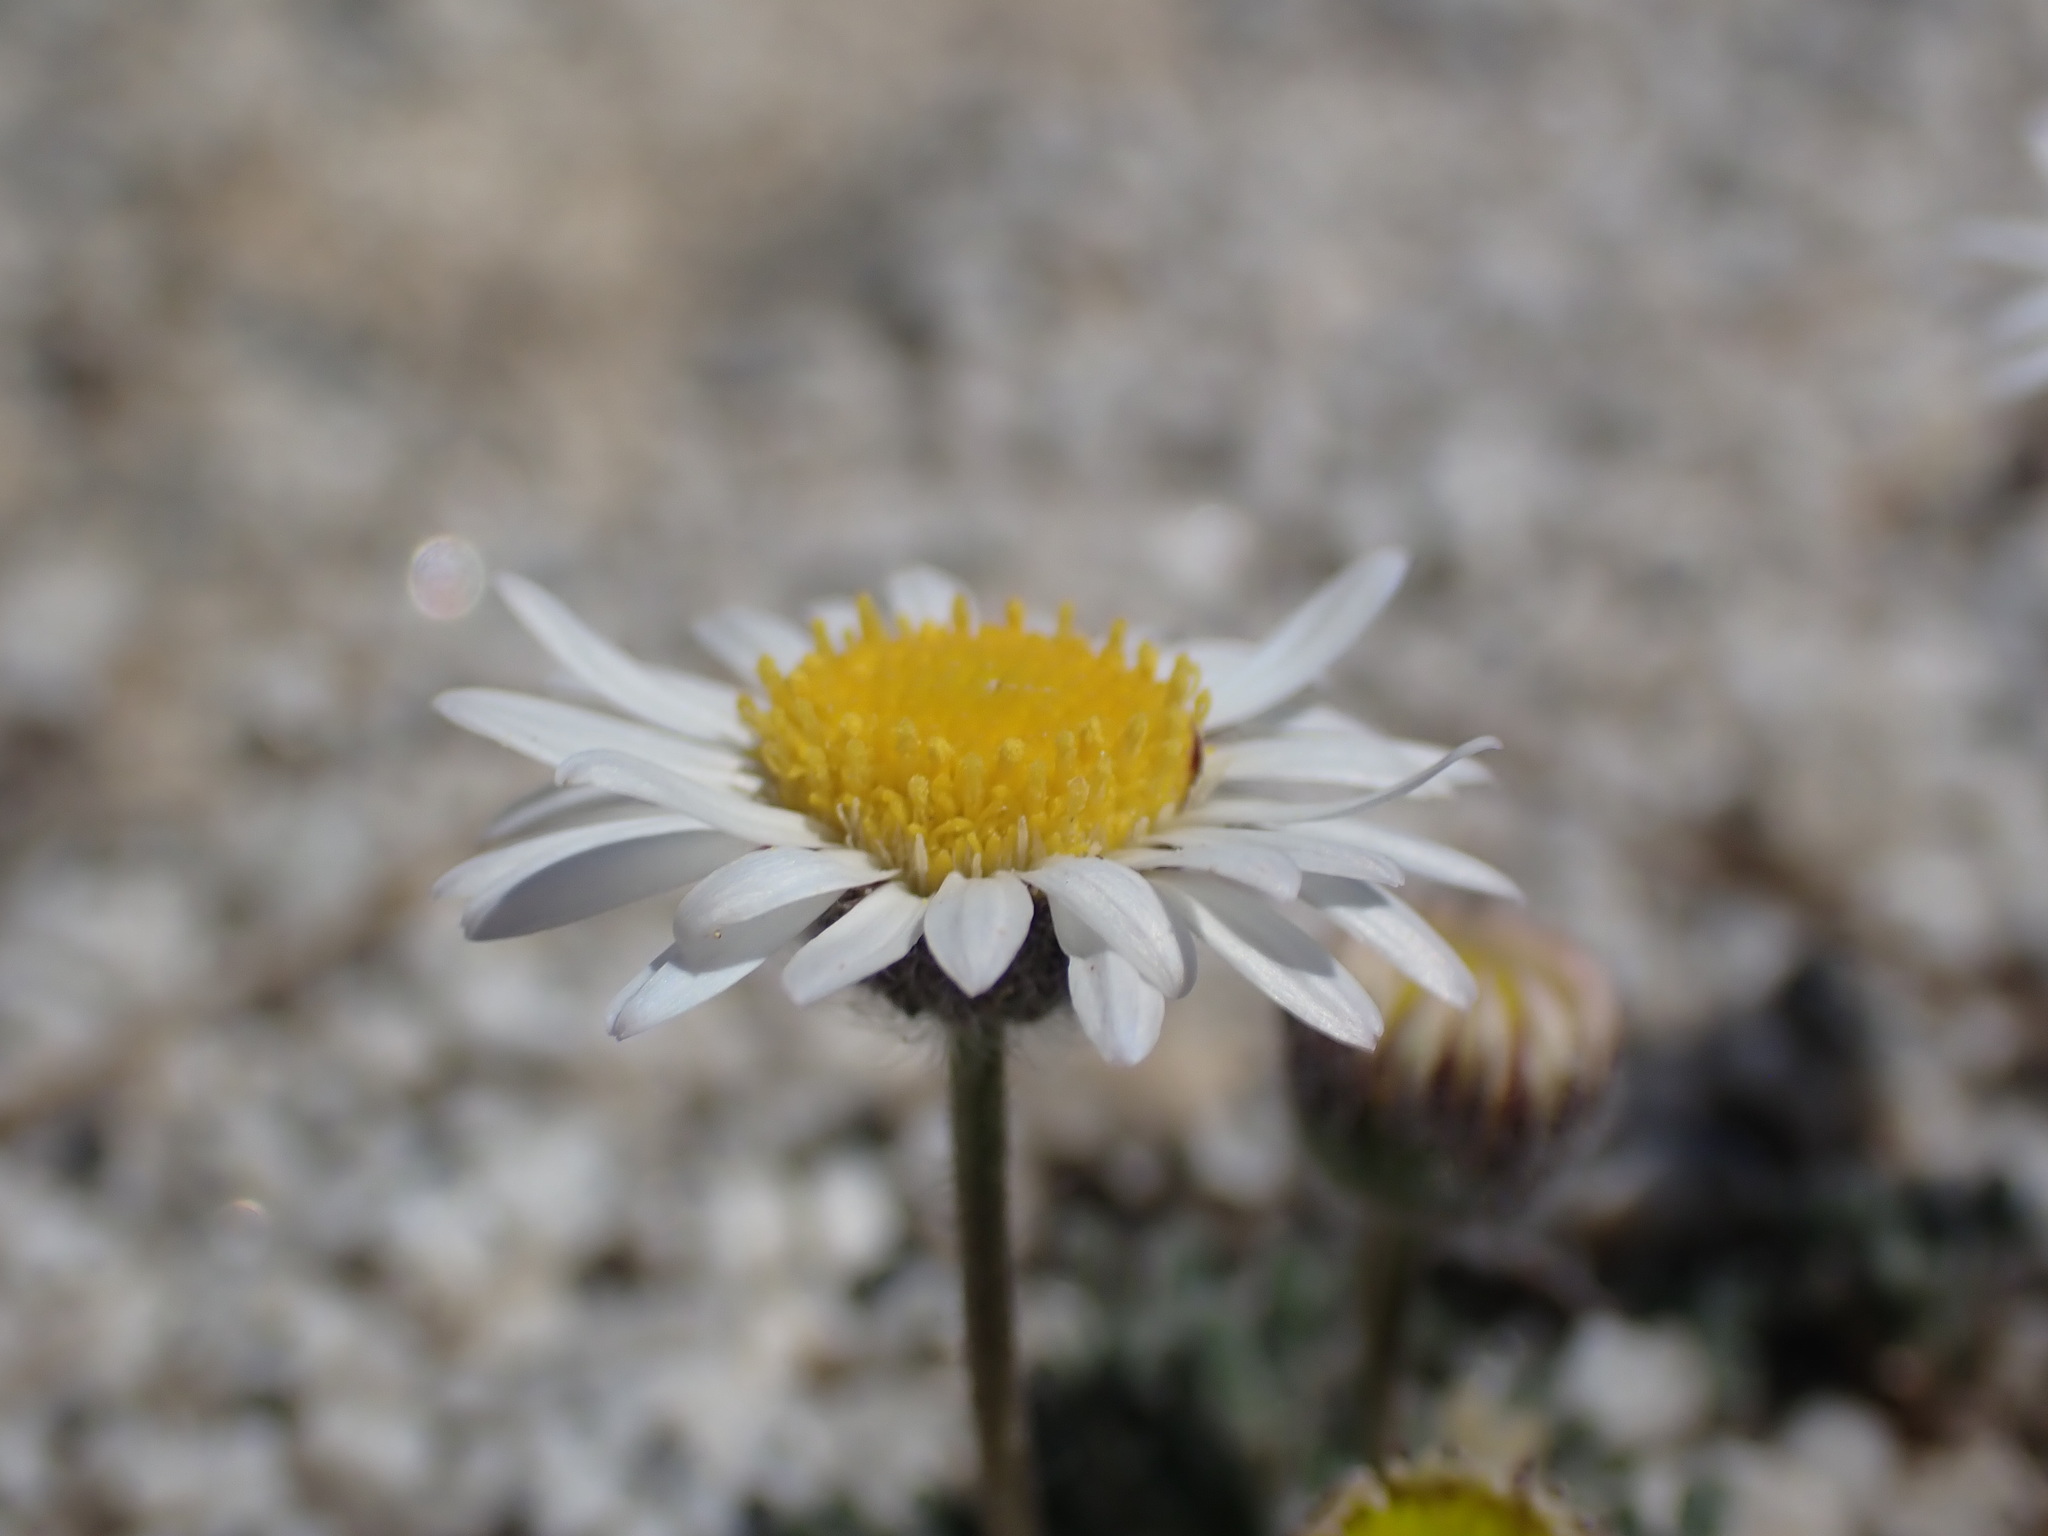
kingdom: Plantae
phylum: Tracheophyta
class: Magnoliopsida
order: Asterales
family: Asteraceae
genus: Erigeron
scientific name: Erigeron compositus
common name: Dwarf mountain fleabane
